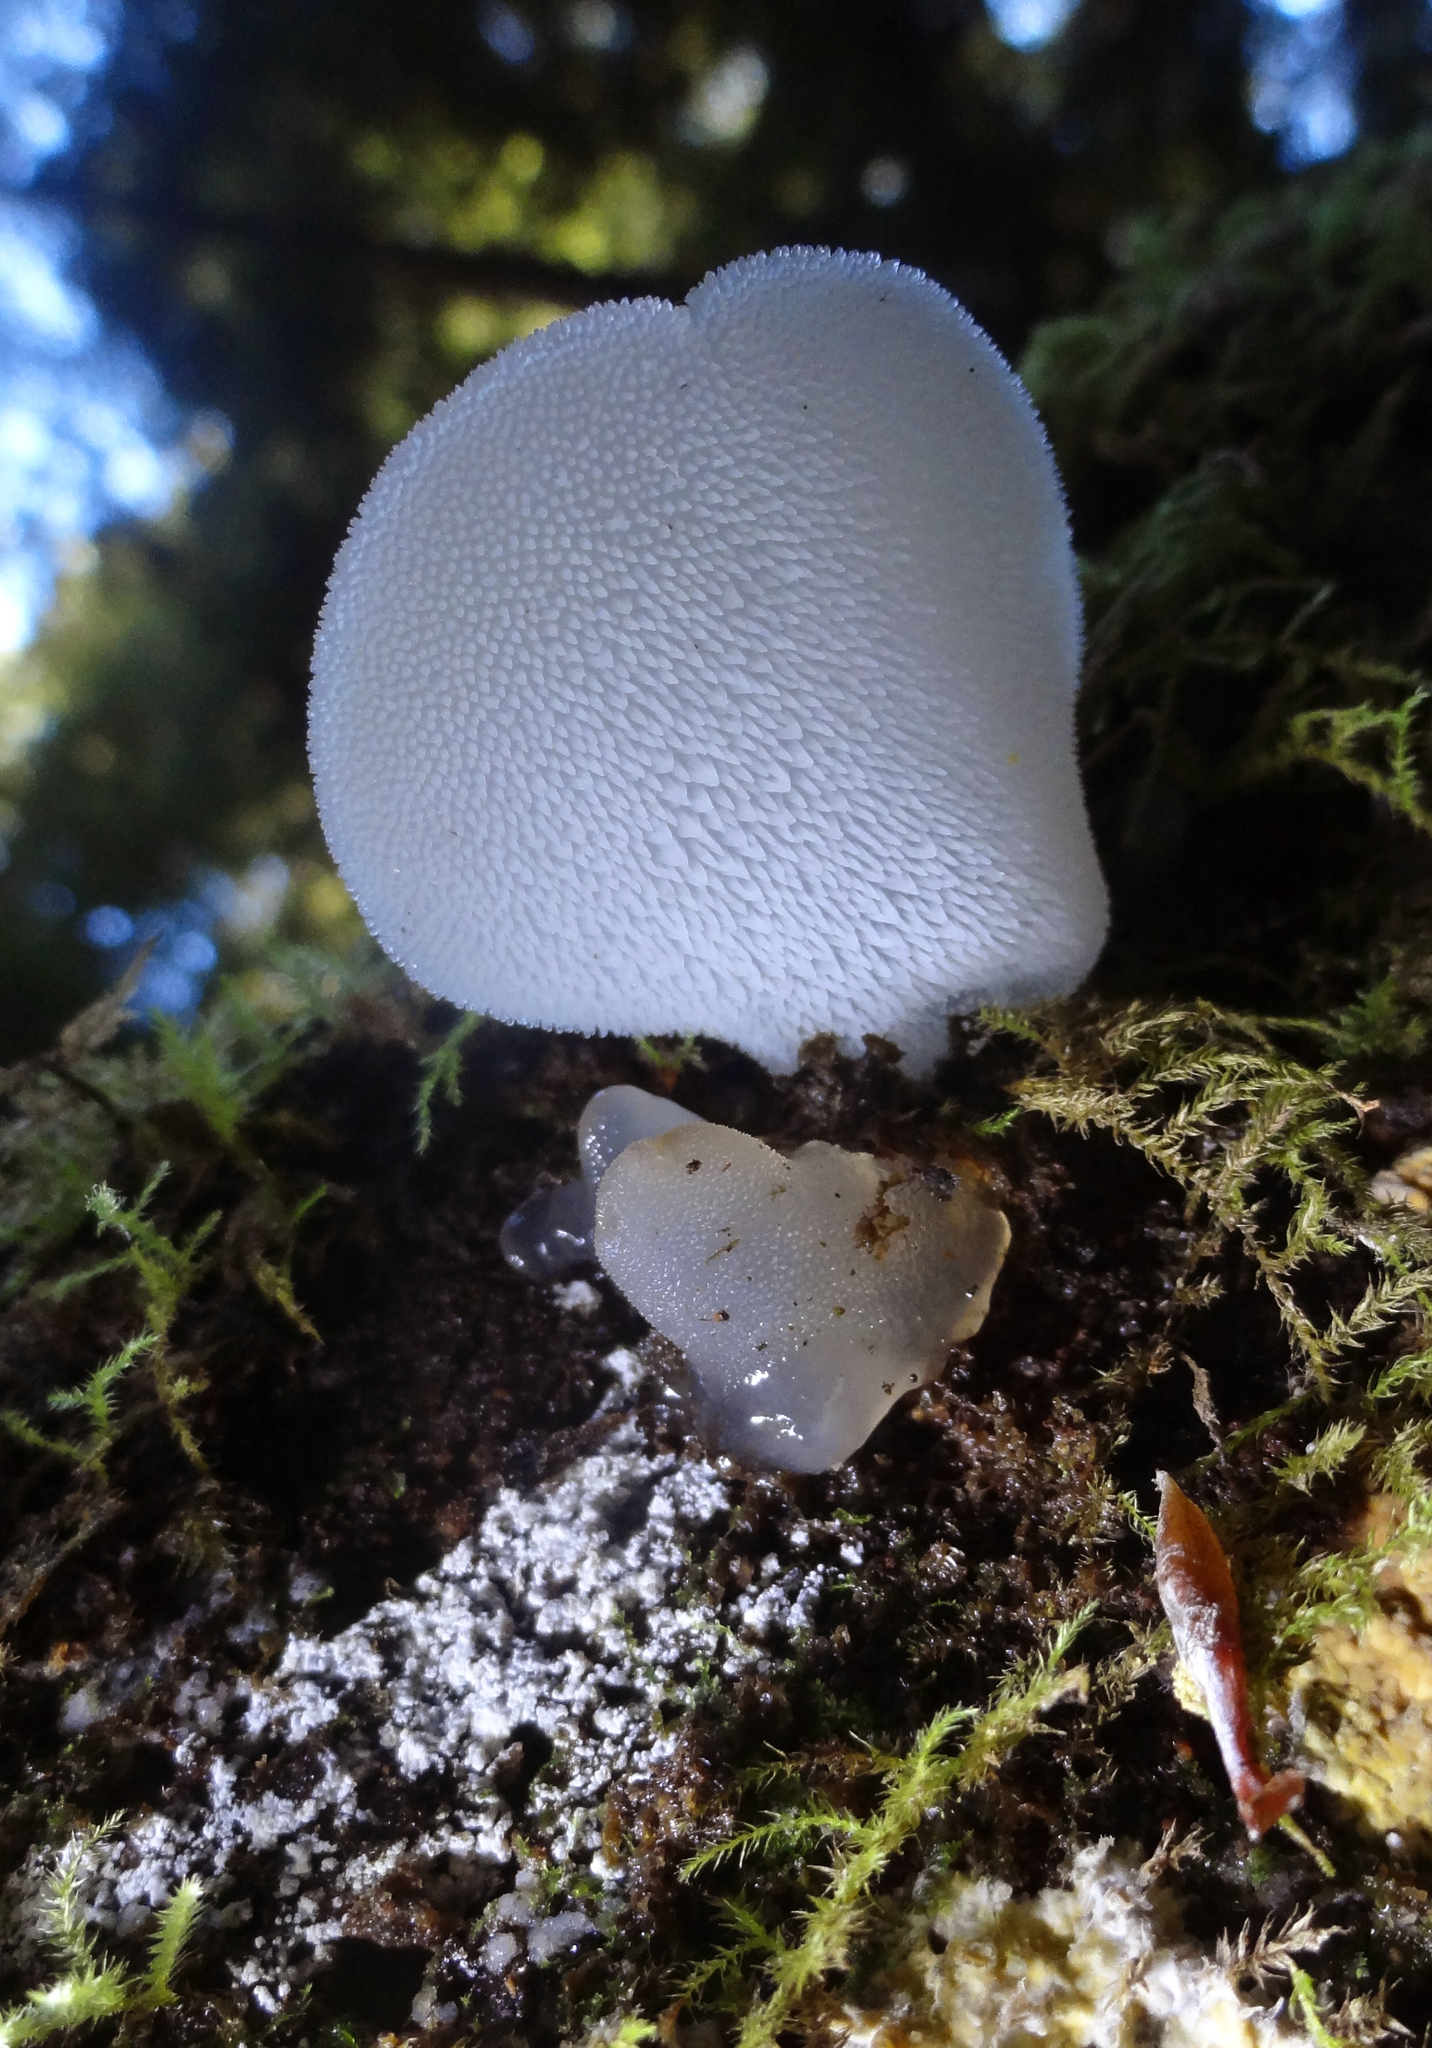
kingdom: Fungi
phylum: Basidiomycota
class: Agaricomycetes
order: Auriculariales
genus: Pseudohydnum
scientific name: Pseudohydnum gelatinosum
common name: Jelly tongue
